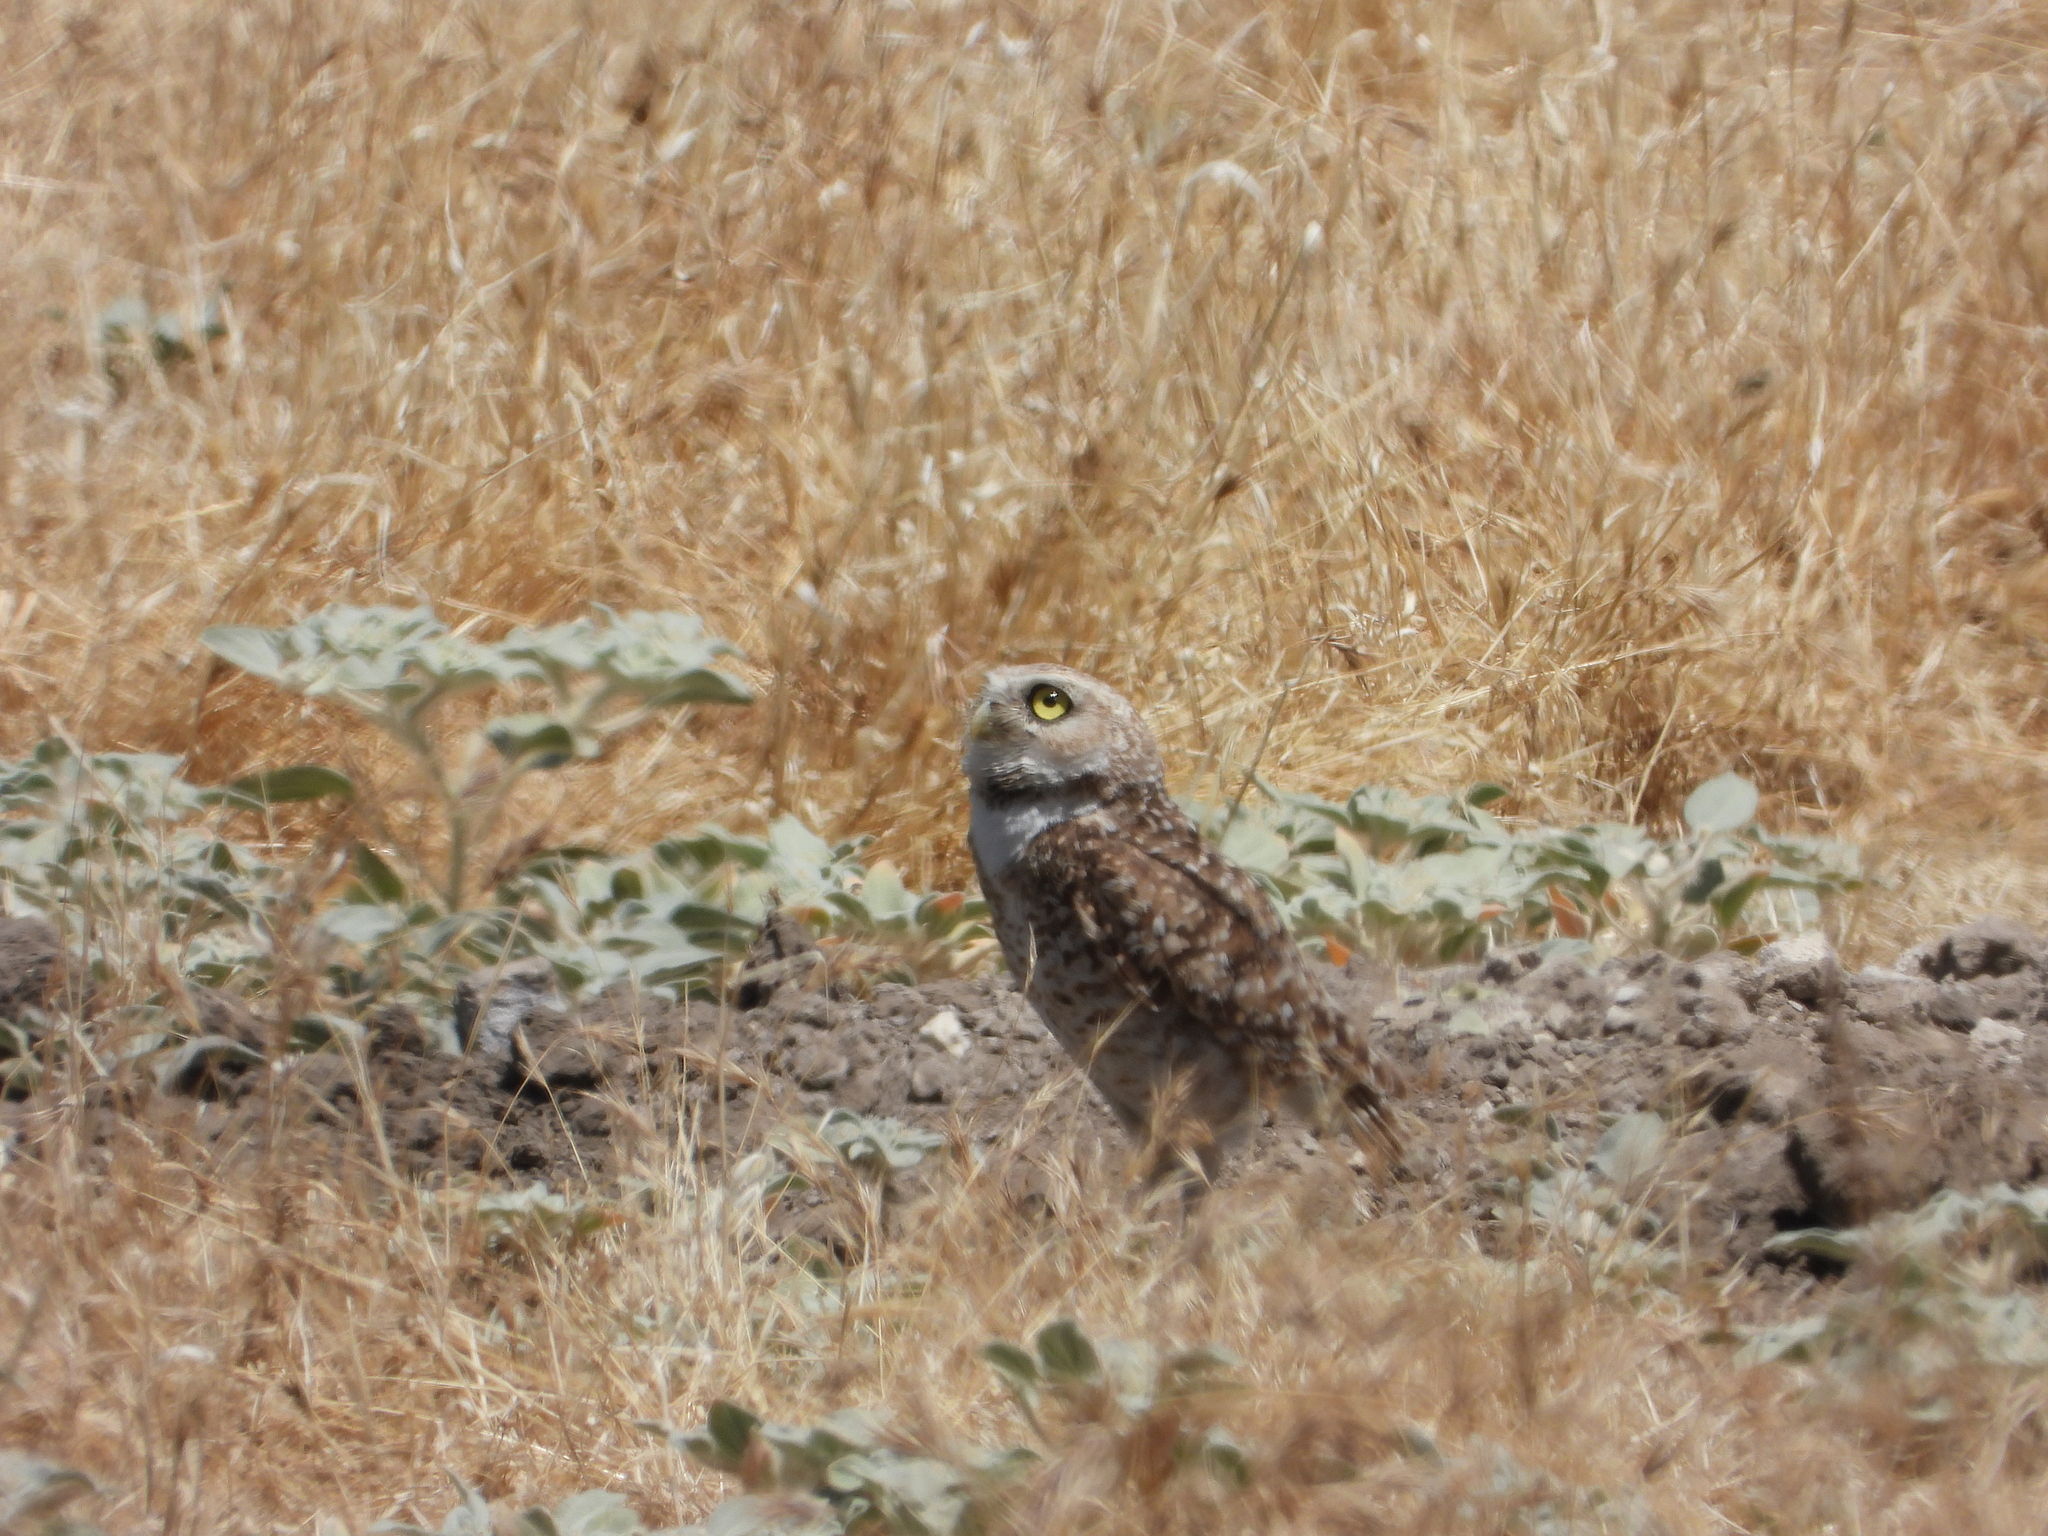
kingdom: Animalia
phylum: Chordata
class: Aves
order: Strigiformes
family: Strigidae
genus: Athene
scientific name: Athene cunicularia
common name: Burrowing owl
